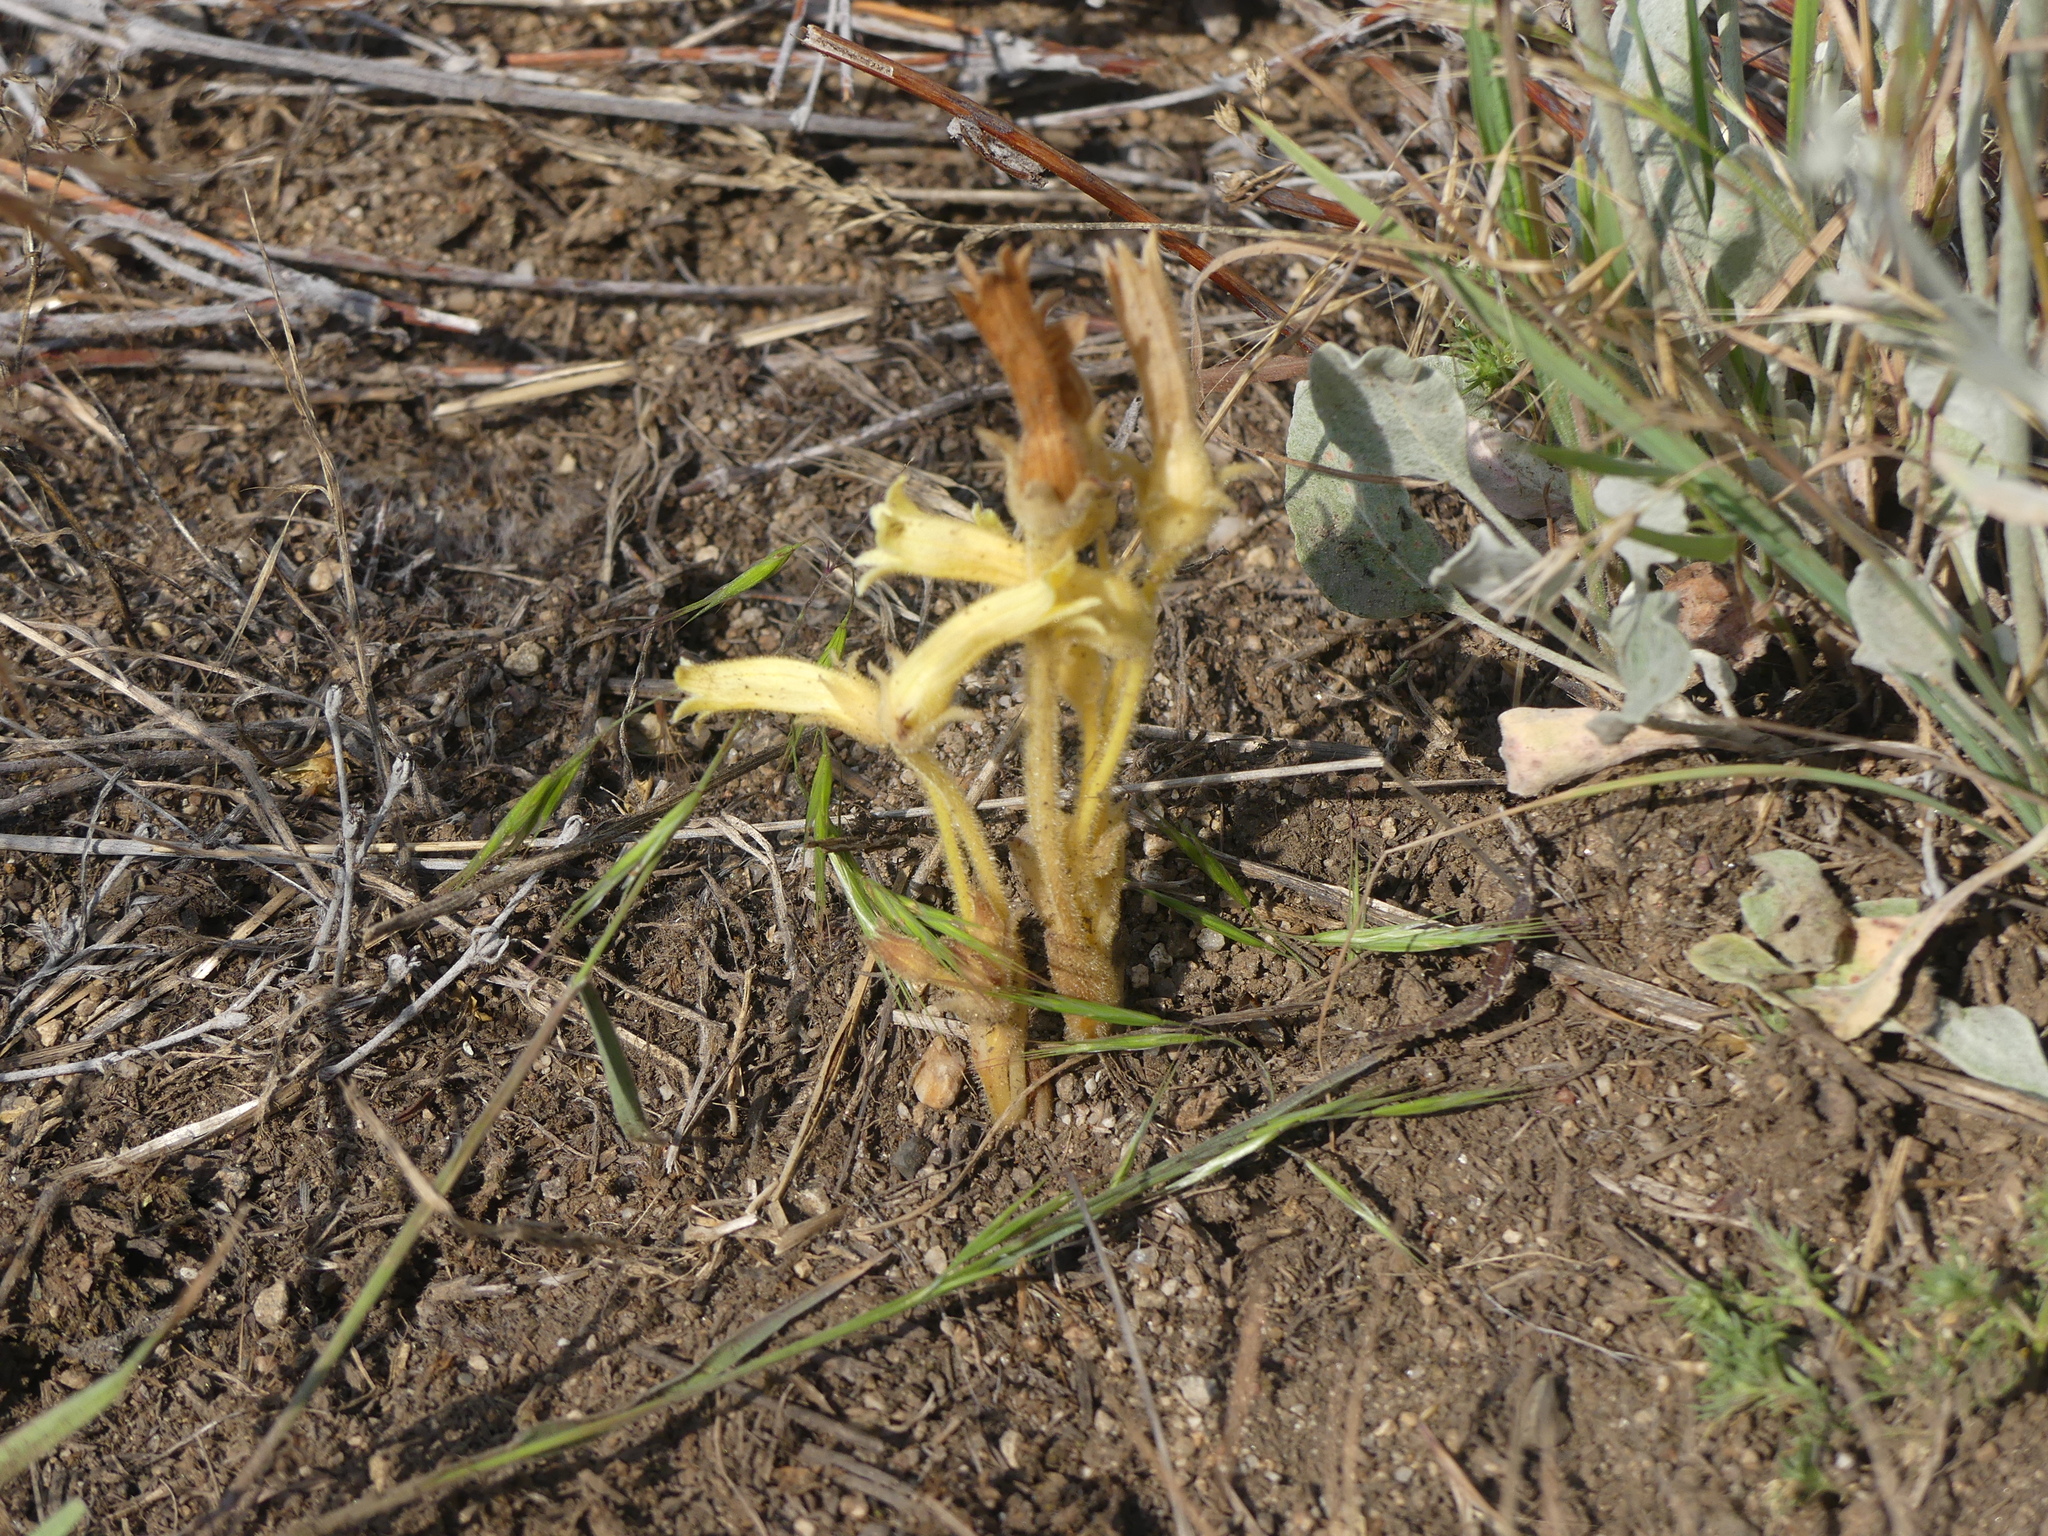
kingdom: Plantae
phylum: Tracheophyta
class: Magnoliopsida
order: Lamiales
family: Orobanchaceae
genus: Aphyllon
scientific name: Aphyllon franciscanum
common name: San francisco broomrape
